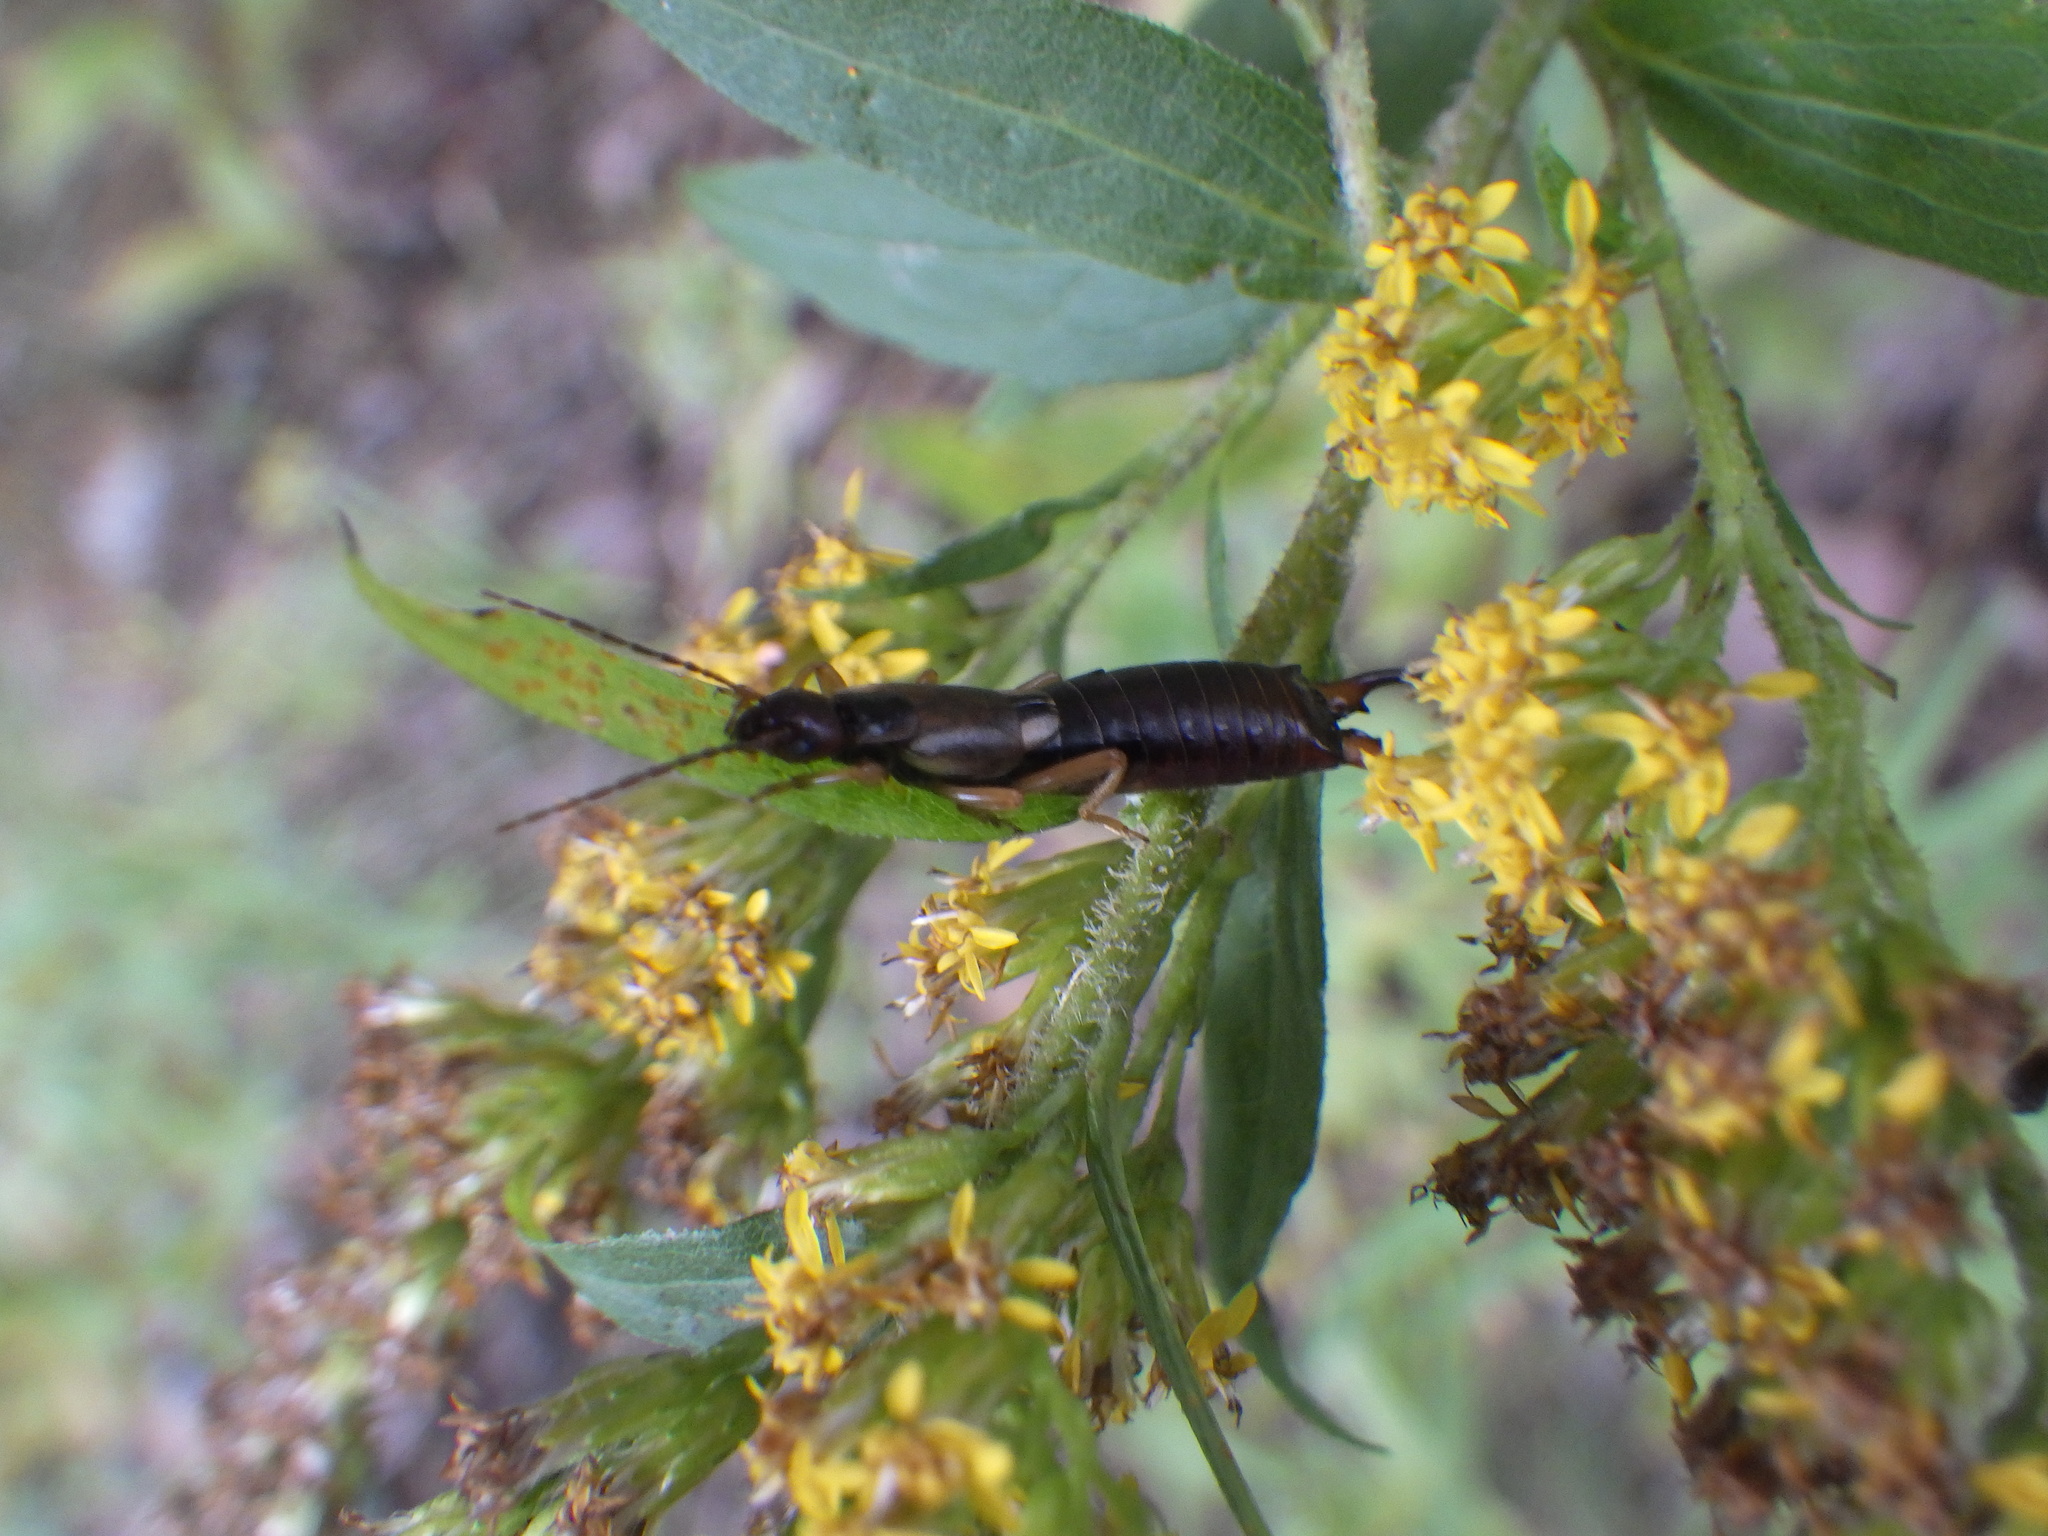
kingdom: Animalia
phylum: Arthropoda
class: Insecta
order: Dermaptera
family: Forficulidae
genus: Forficula
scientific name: Forficula
